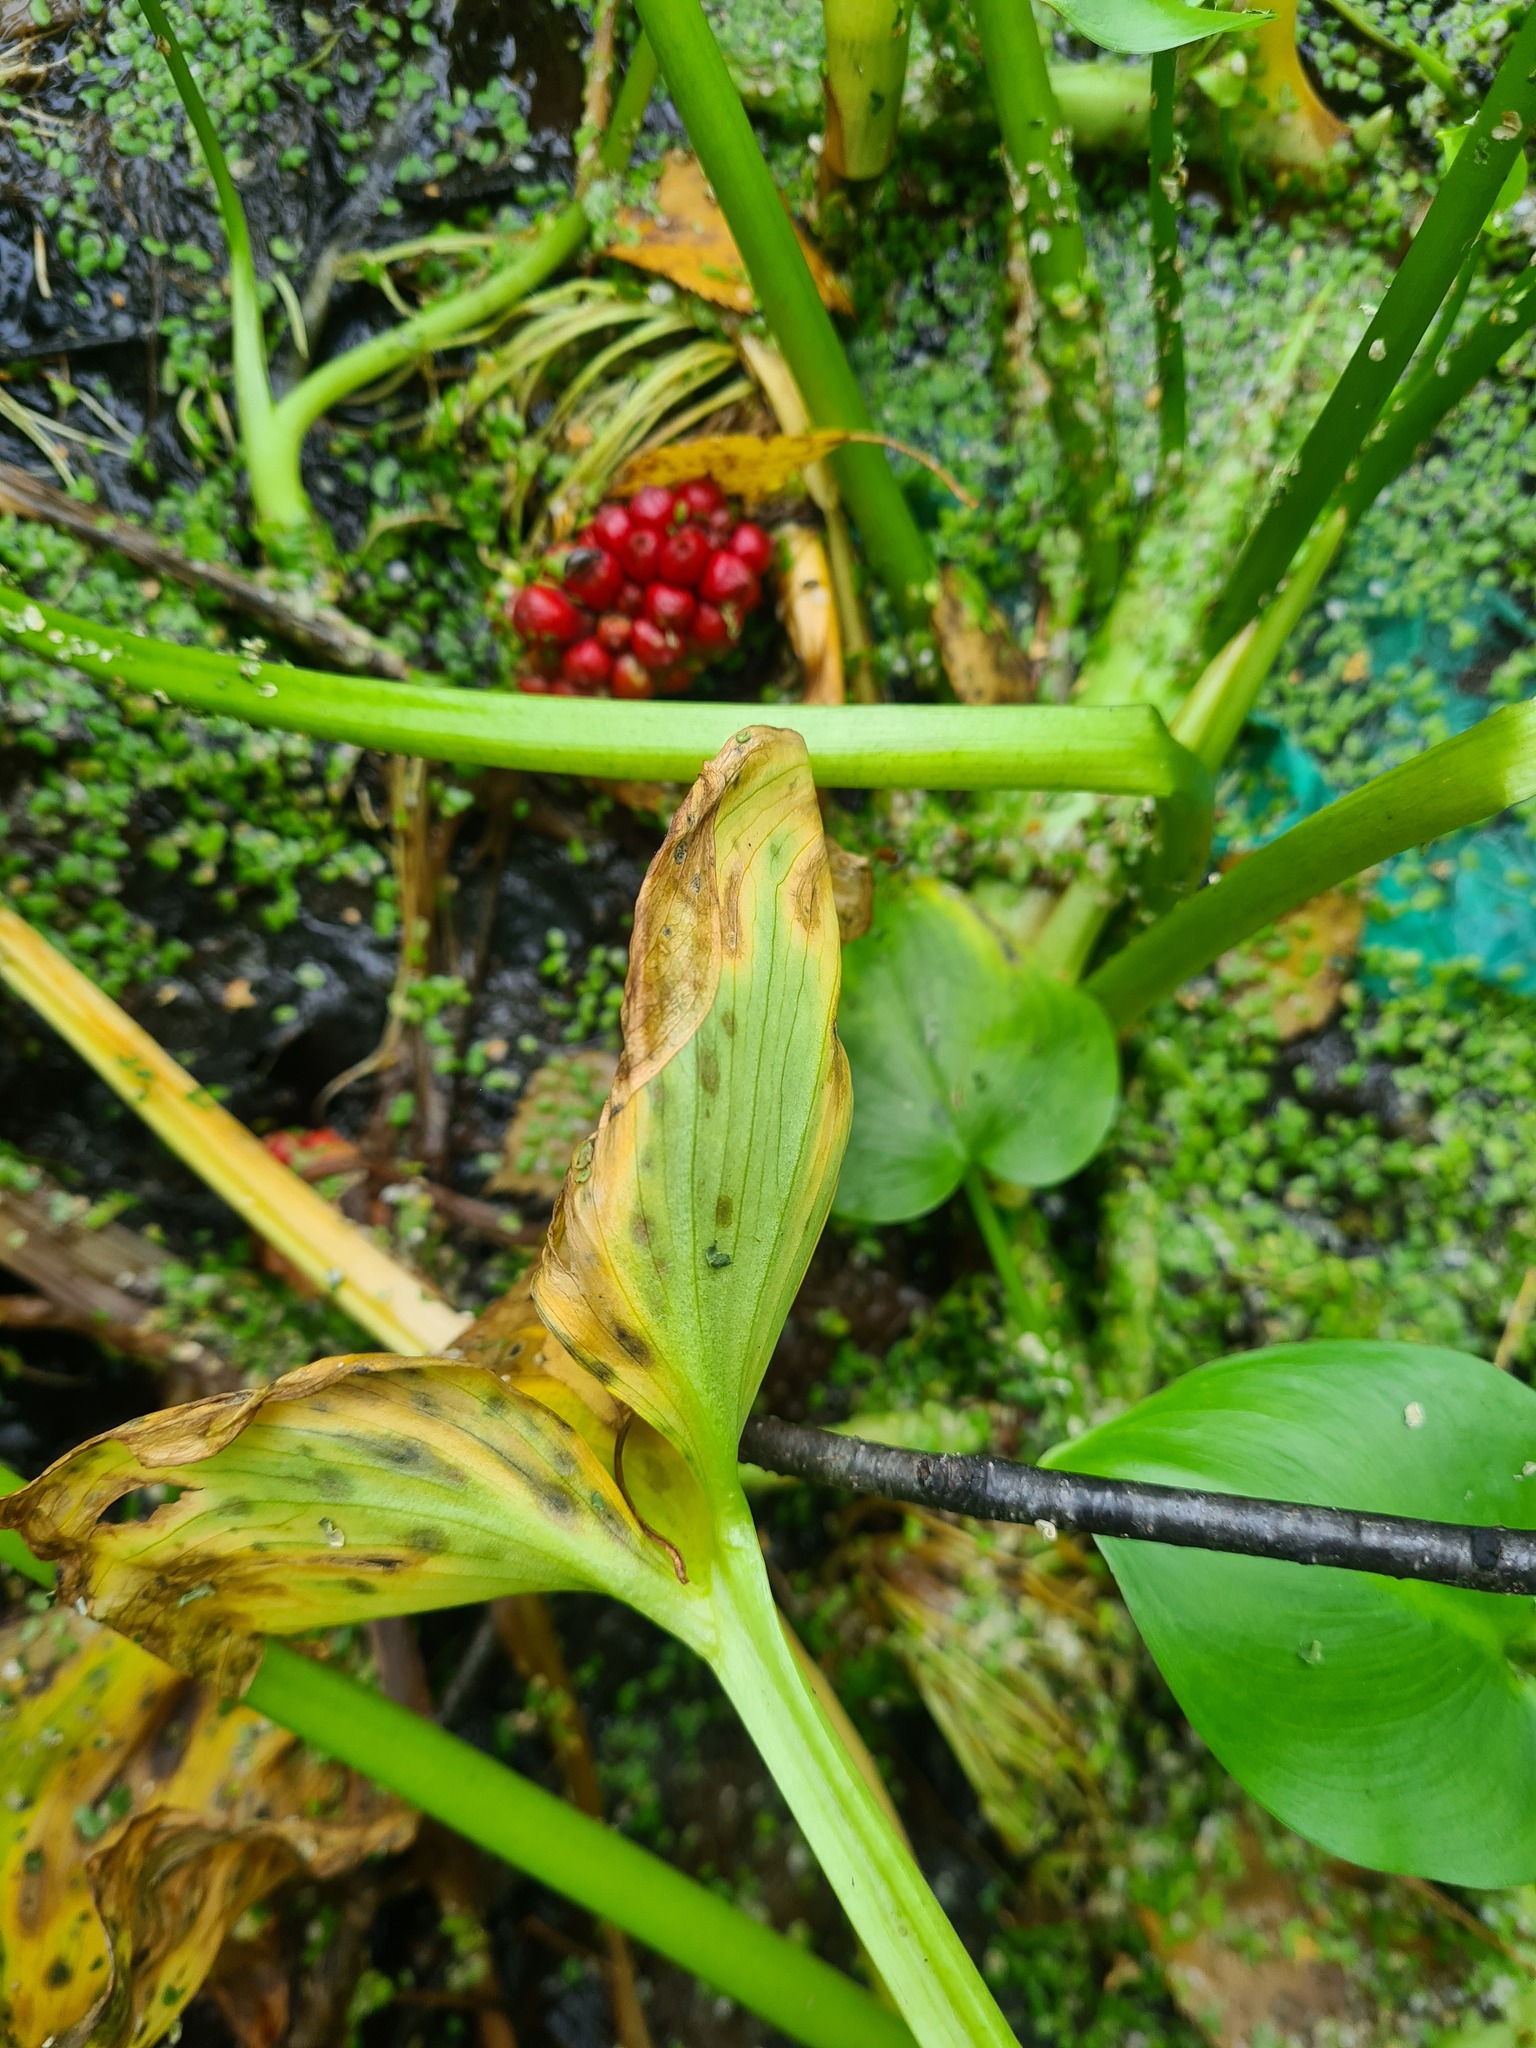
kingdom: Plantae
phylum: Tracheophyta
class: Liliopsida
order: Alismatales
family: Araceae
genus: Calla
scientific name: Calla palustris
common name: Bog arum
